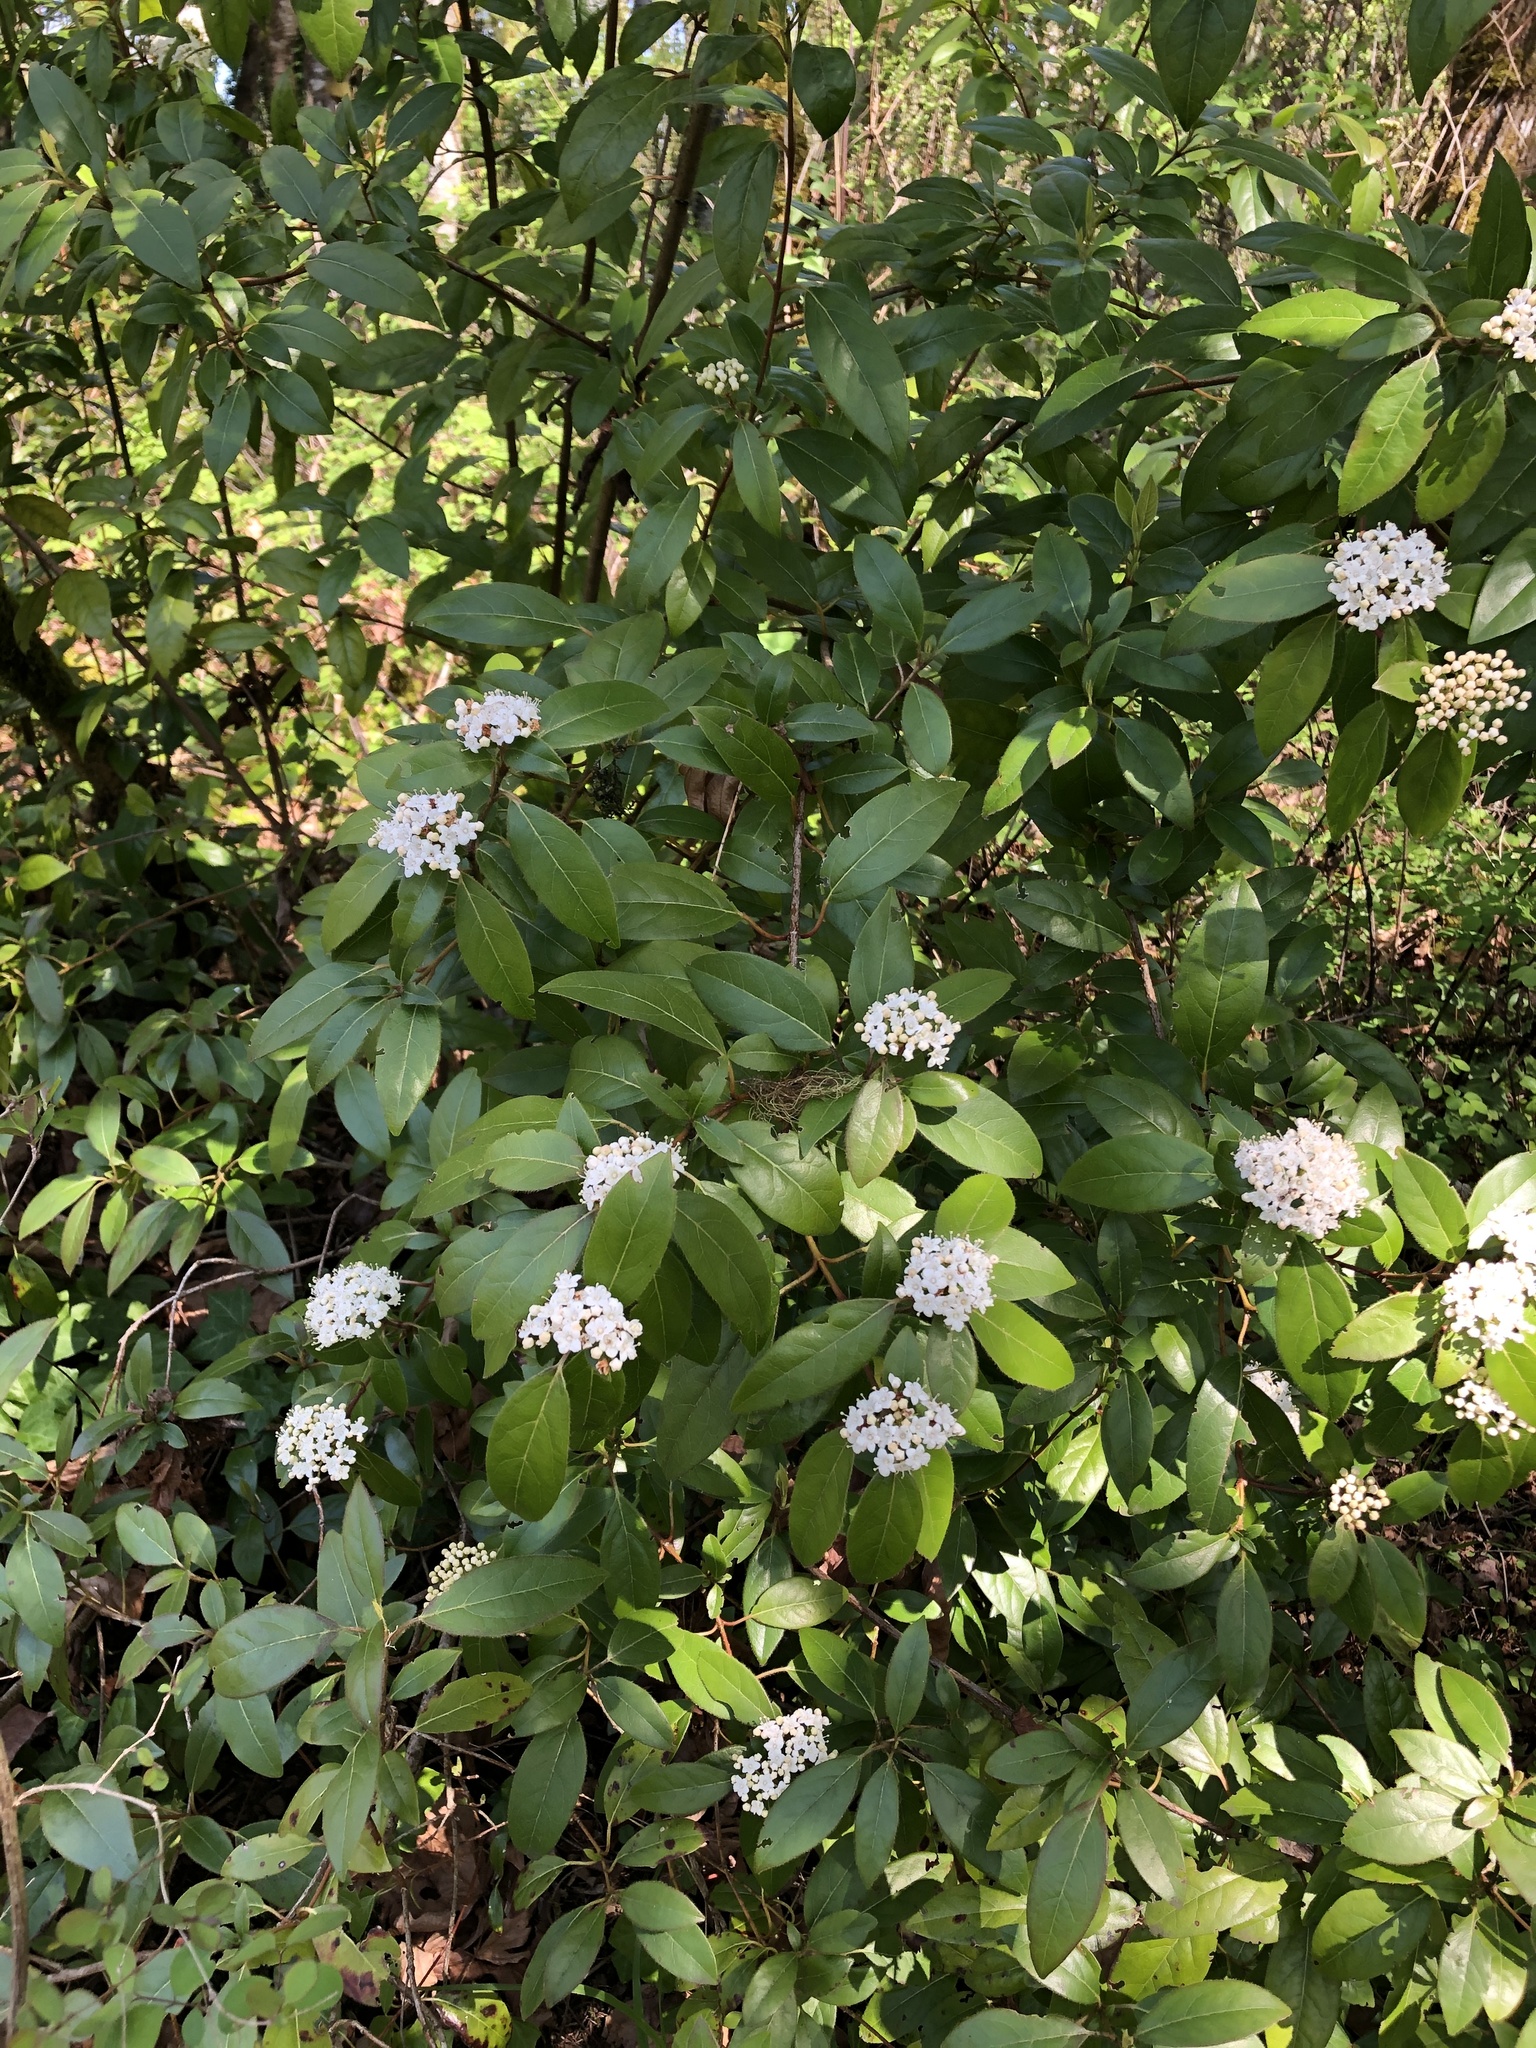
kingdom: Plantae
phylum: Tracheophyta
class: Magnoliopsida
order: Dipsacales
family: Viburnaceae
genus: Viburnum
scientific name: Viburnum tinus
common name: Laurustinus
